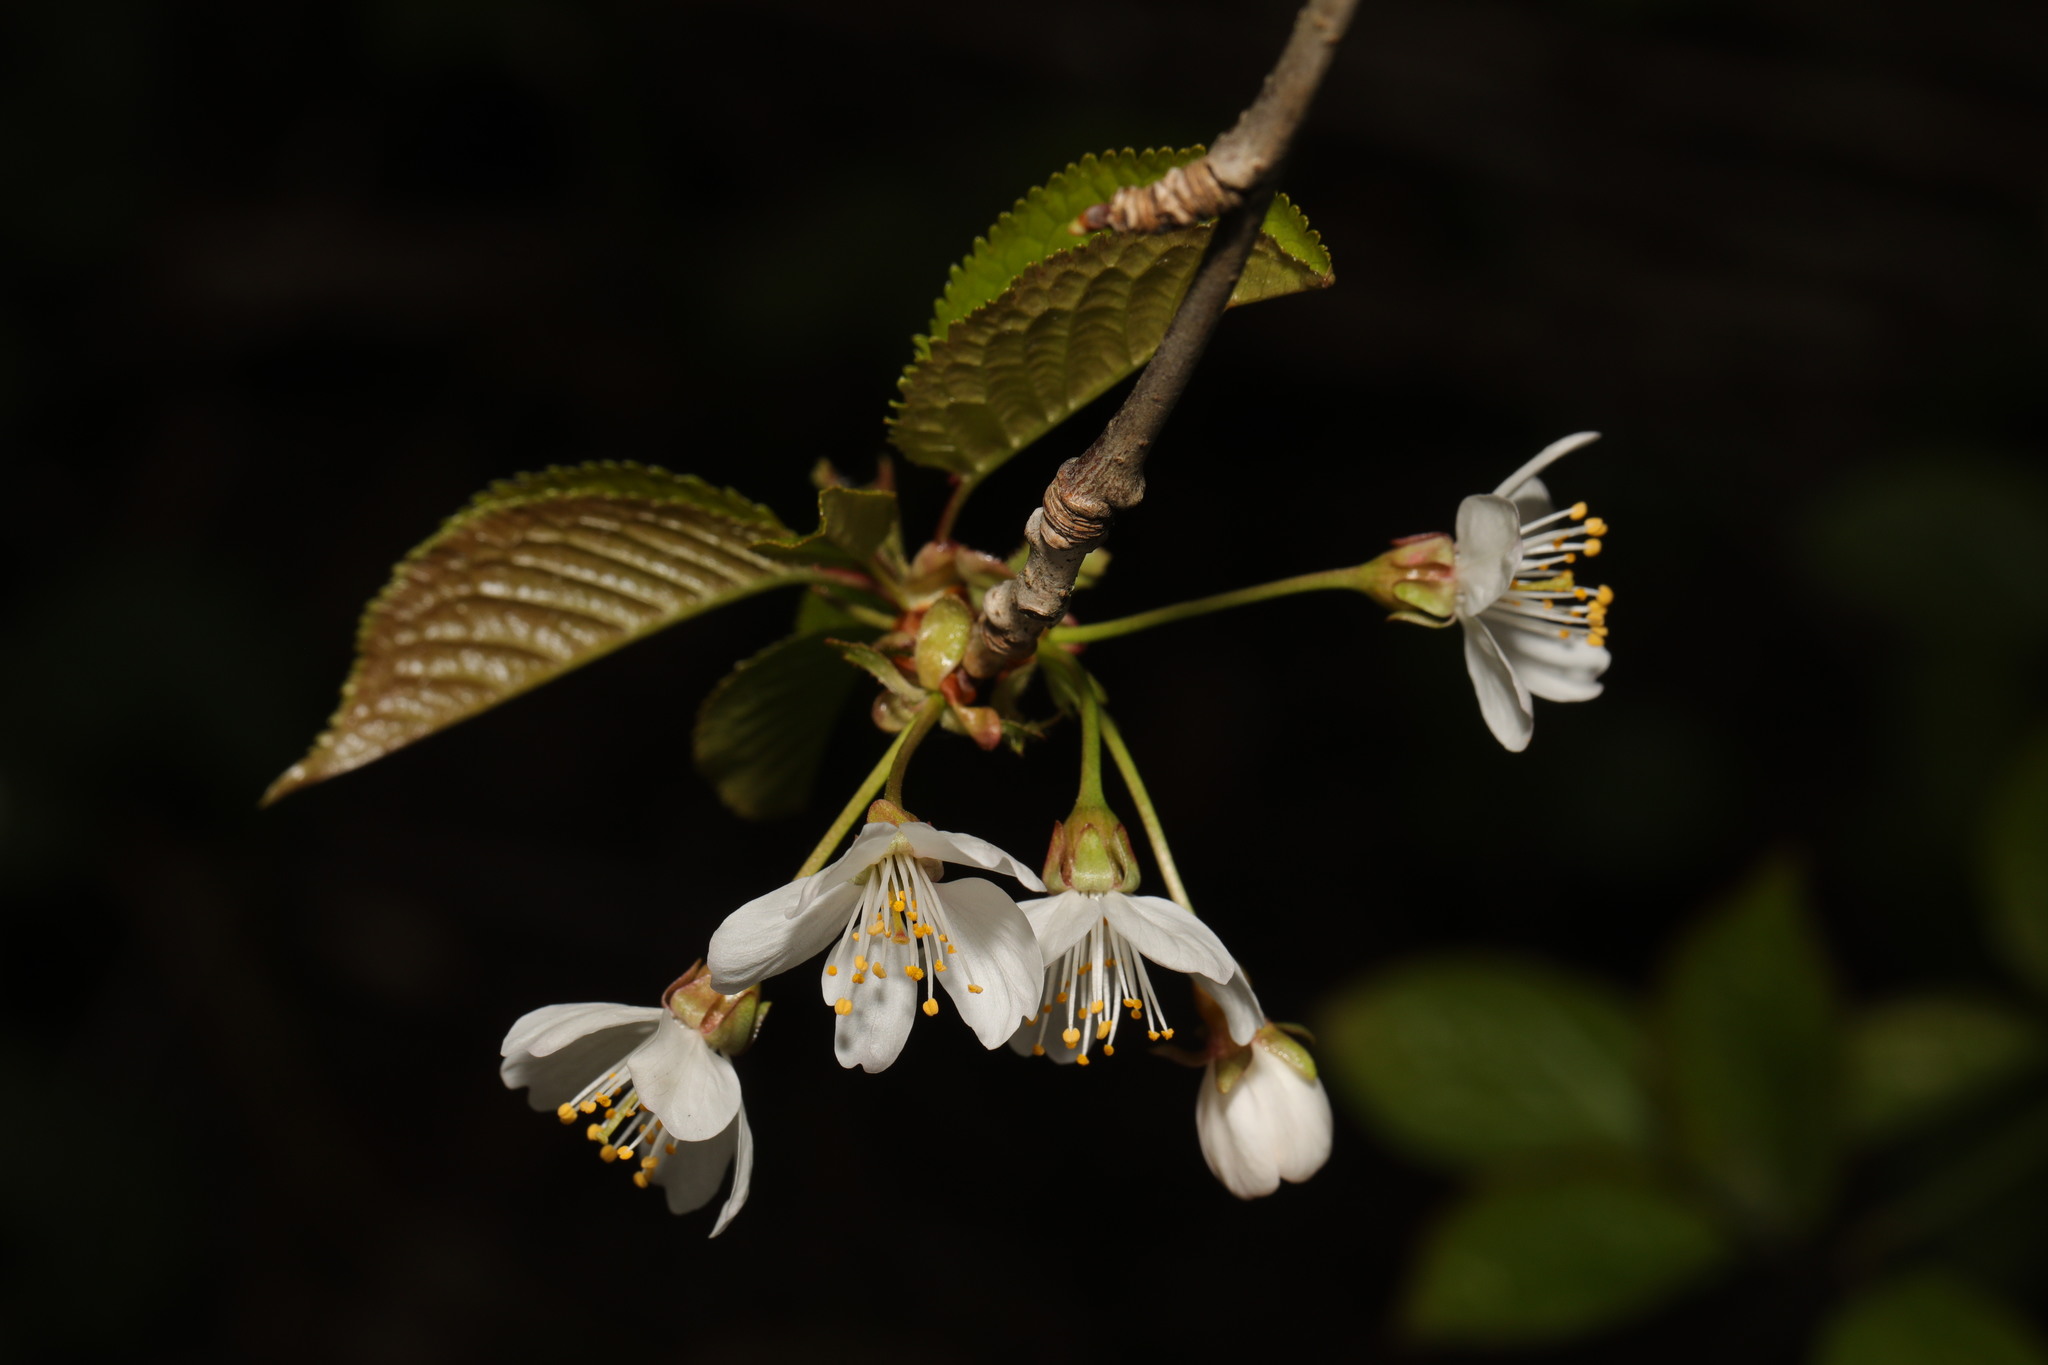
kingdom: Plantae
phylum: Tracheophyta
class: Magnoliopsida
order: Rosales
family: Rosaceae
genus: Prunus
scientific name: Prunus avium
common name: Sweet cherry
